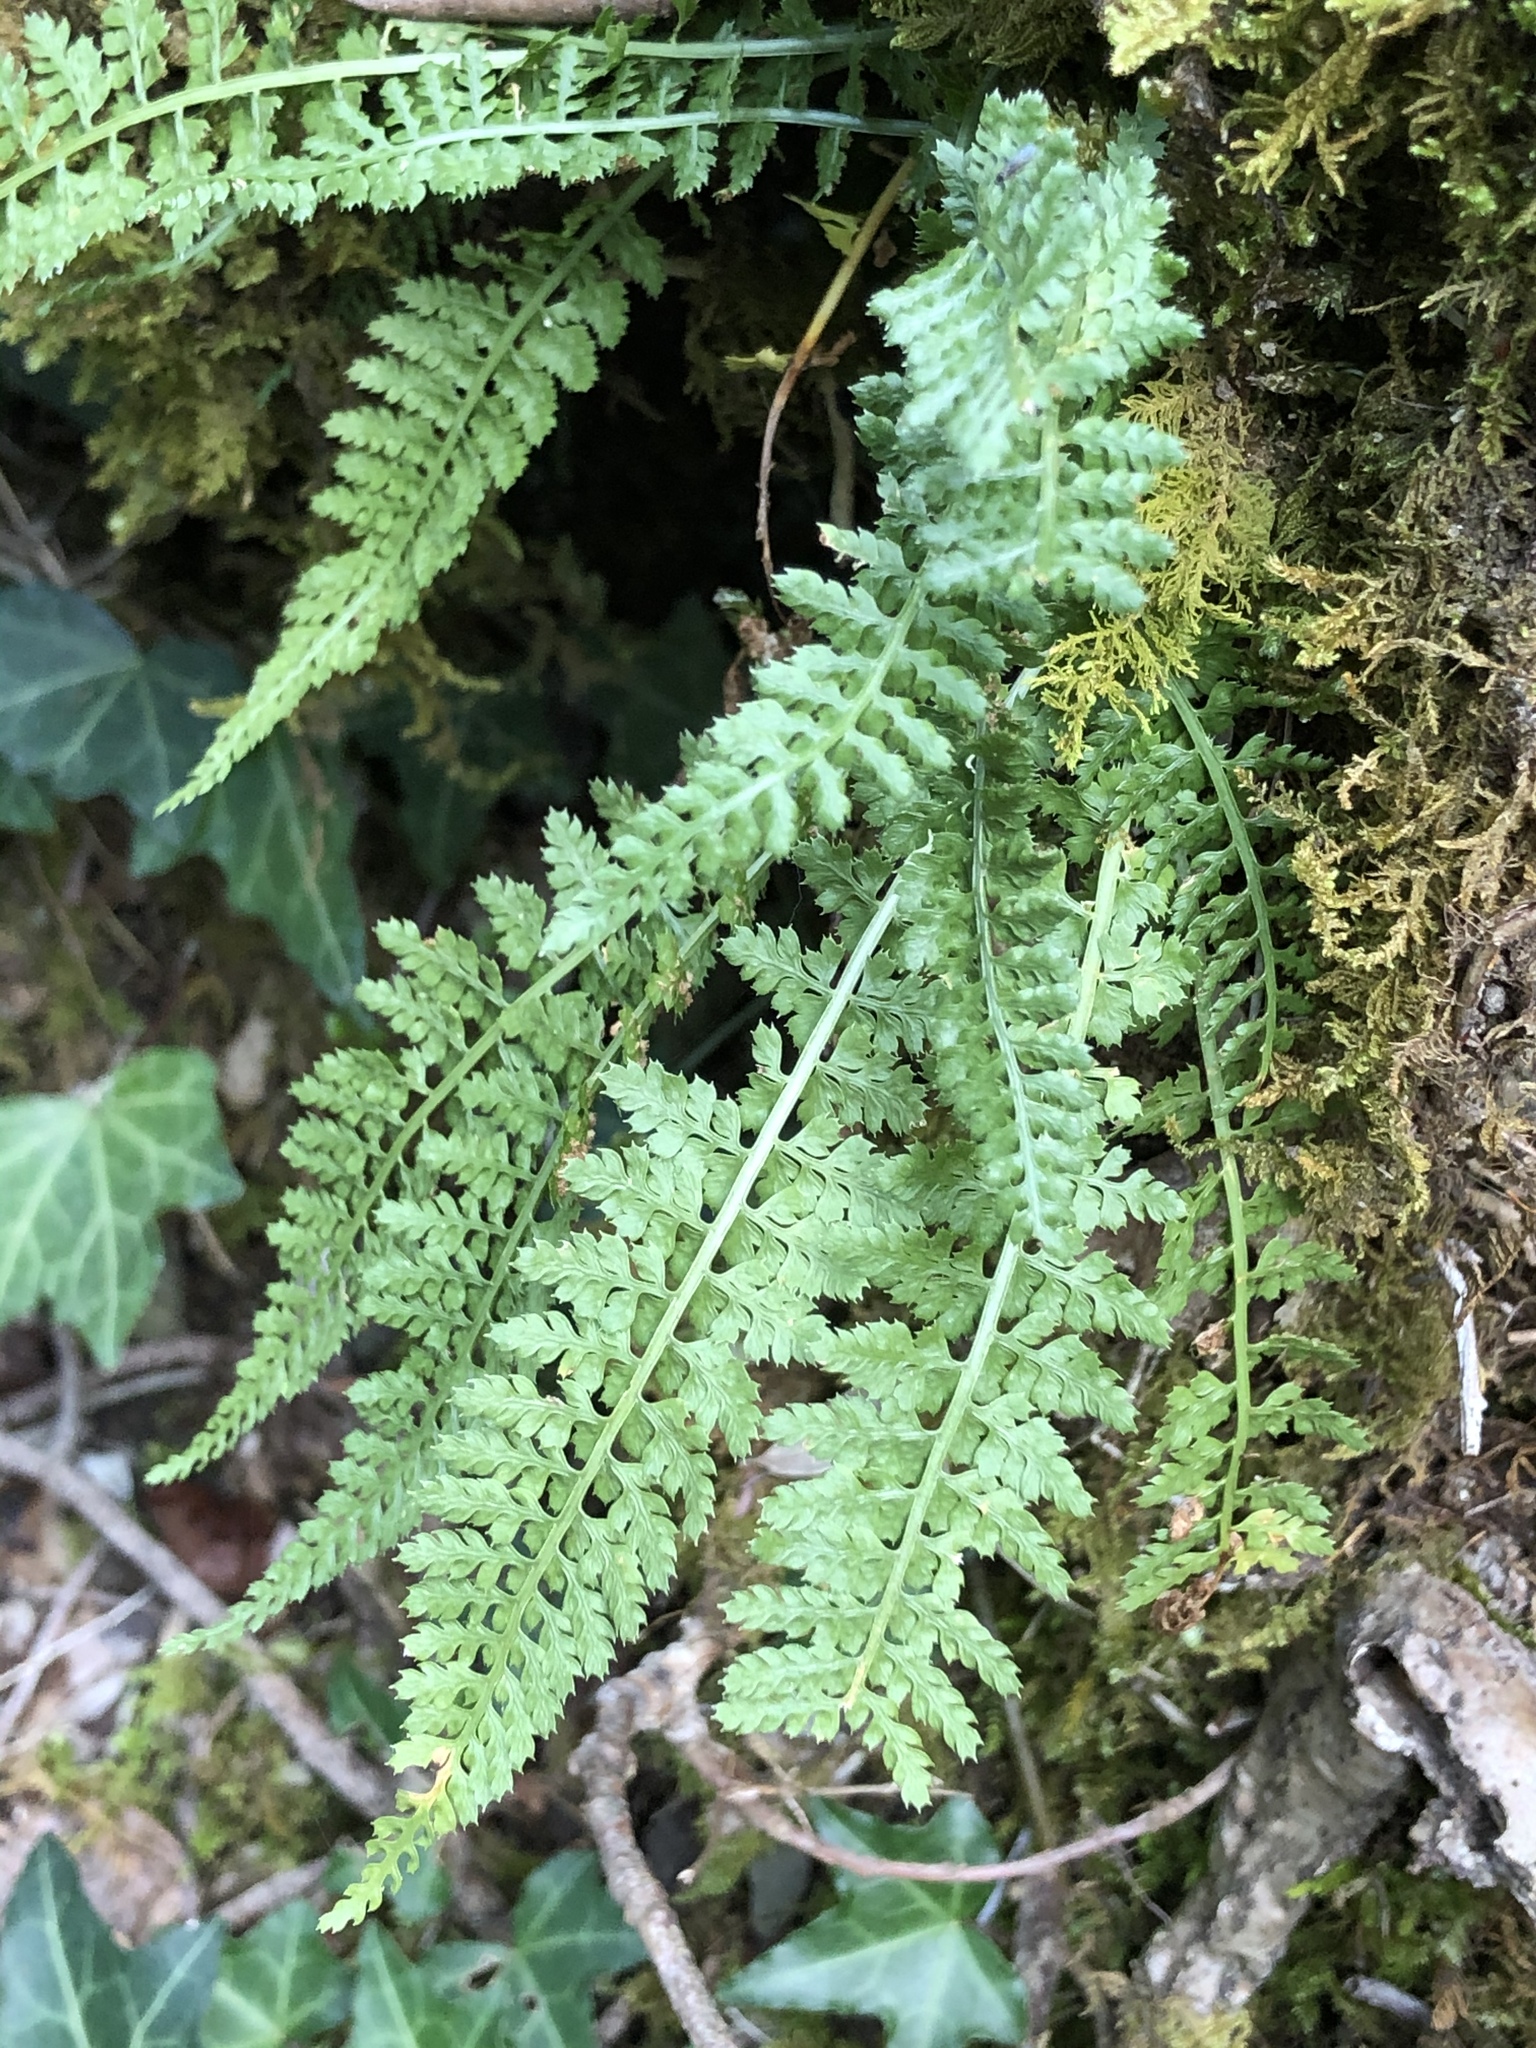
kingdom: Plantae
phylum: Tracheophyta
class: Polypodiopsida
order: Polypodiales
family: Aspleniaceae
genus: Asplenium
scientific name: Asplenium fontanum
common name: Fountain spleenwort
